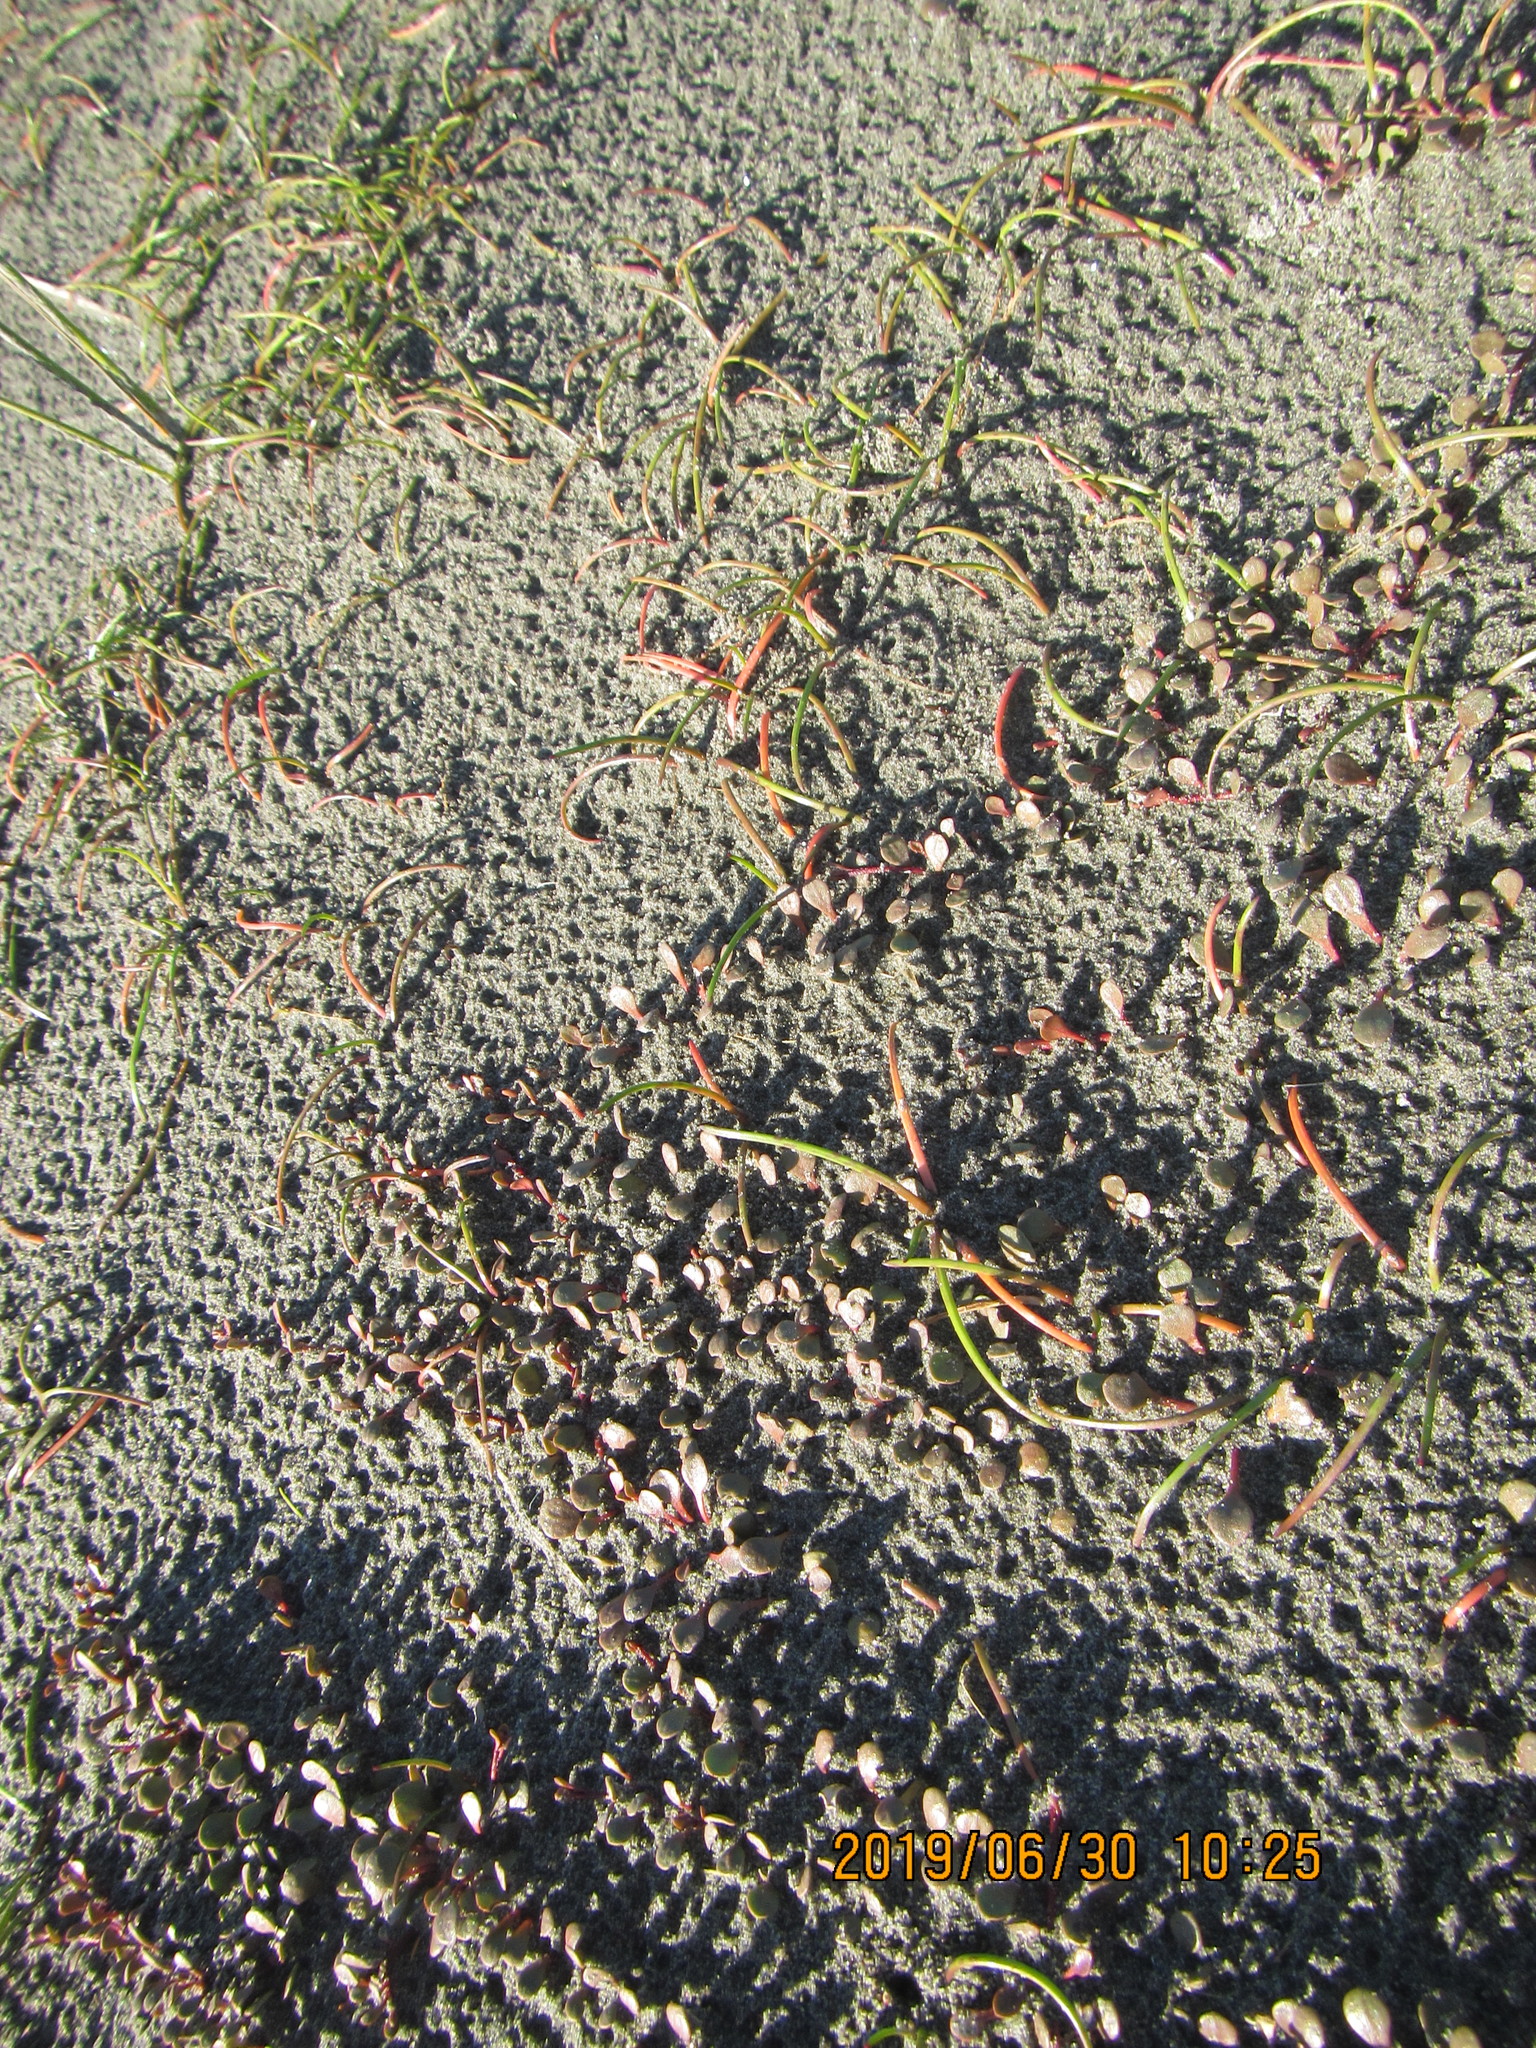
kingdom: Plantae
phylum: Tracheophyta
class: Magnoliopsida
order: Ericales
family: Primulaceae
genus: Samolus
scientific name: Samolus repens
